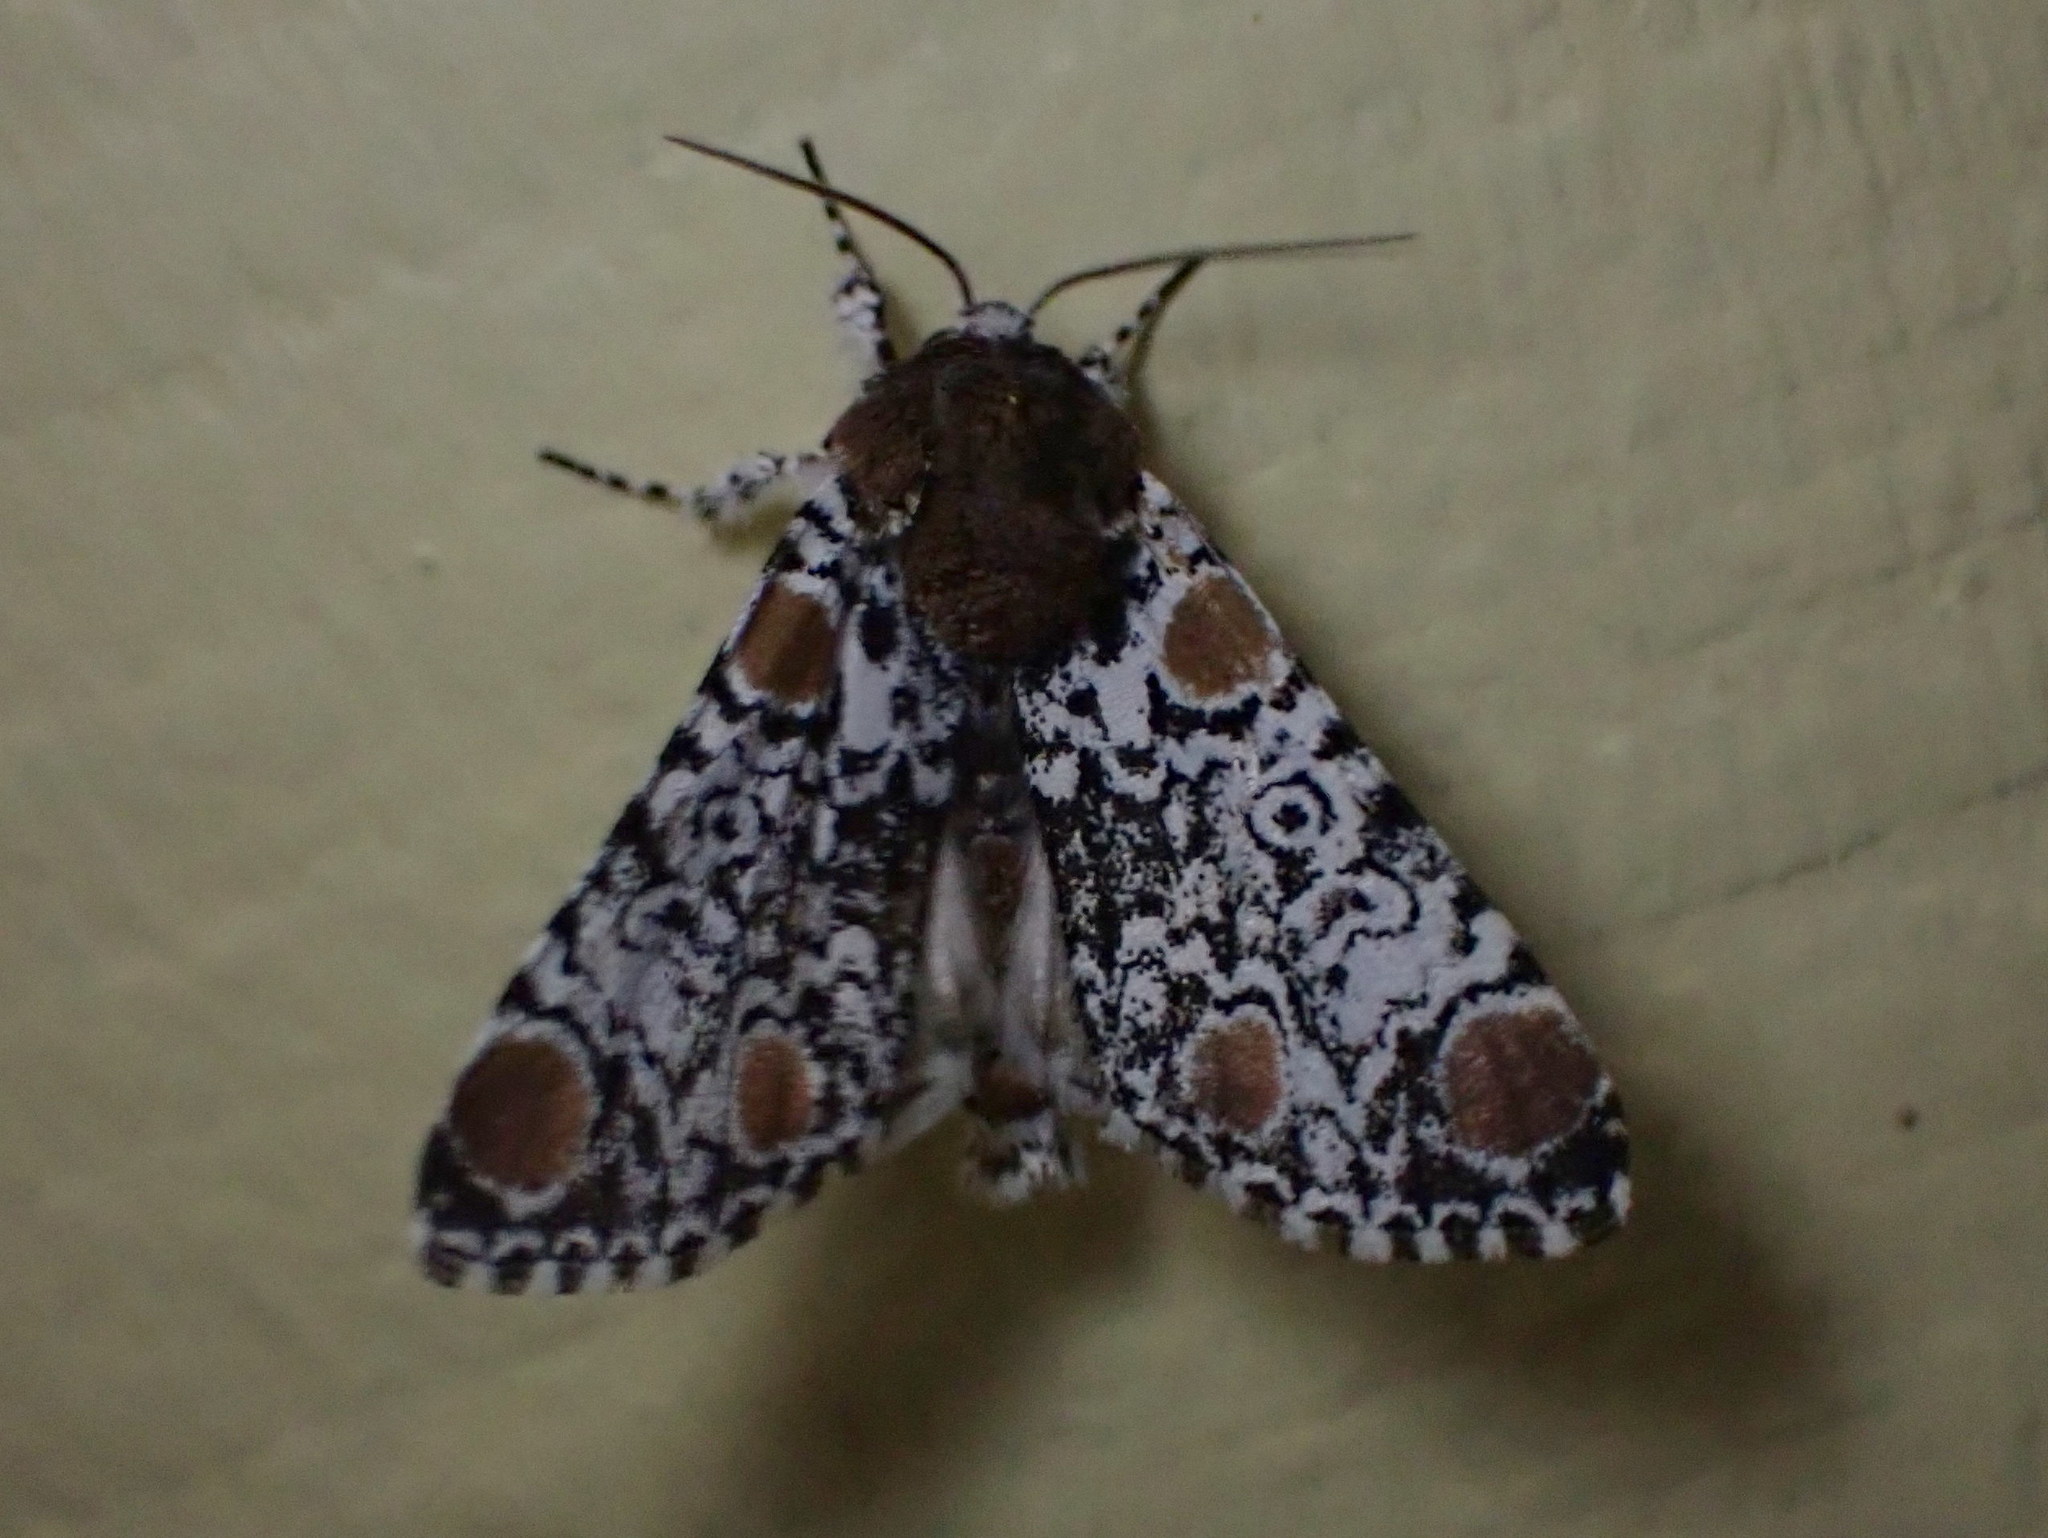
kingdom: Animalia
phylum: Arthropoda
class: Insecta
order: Lepidoptera
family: Noctuidae
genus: Harrisimemna
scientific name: Harrisimemna trisignata
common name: Harris threespot
